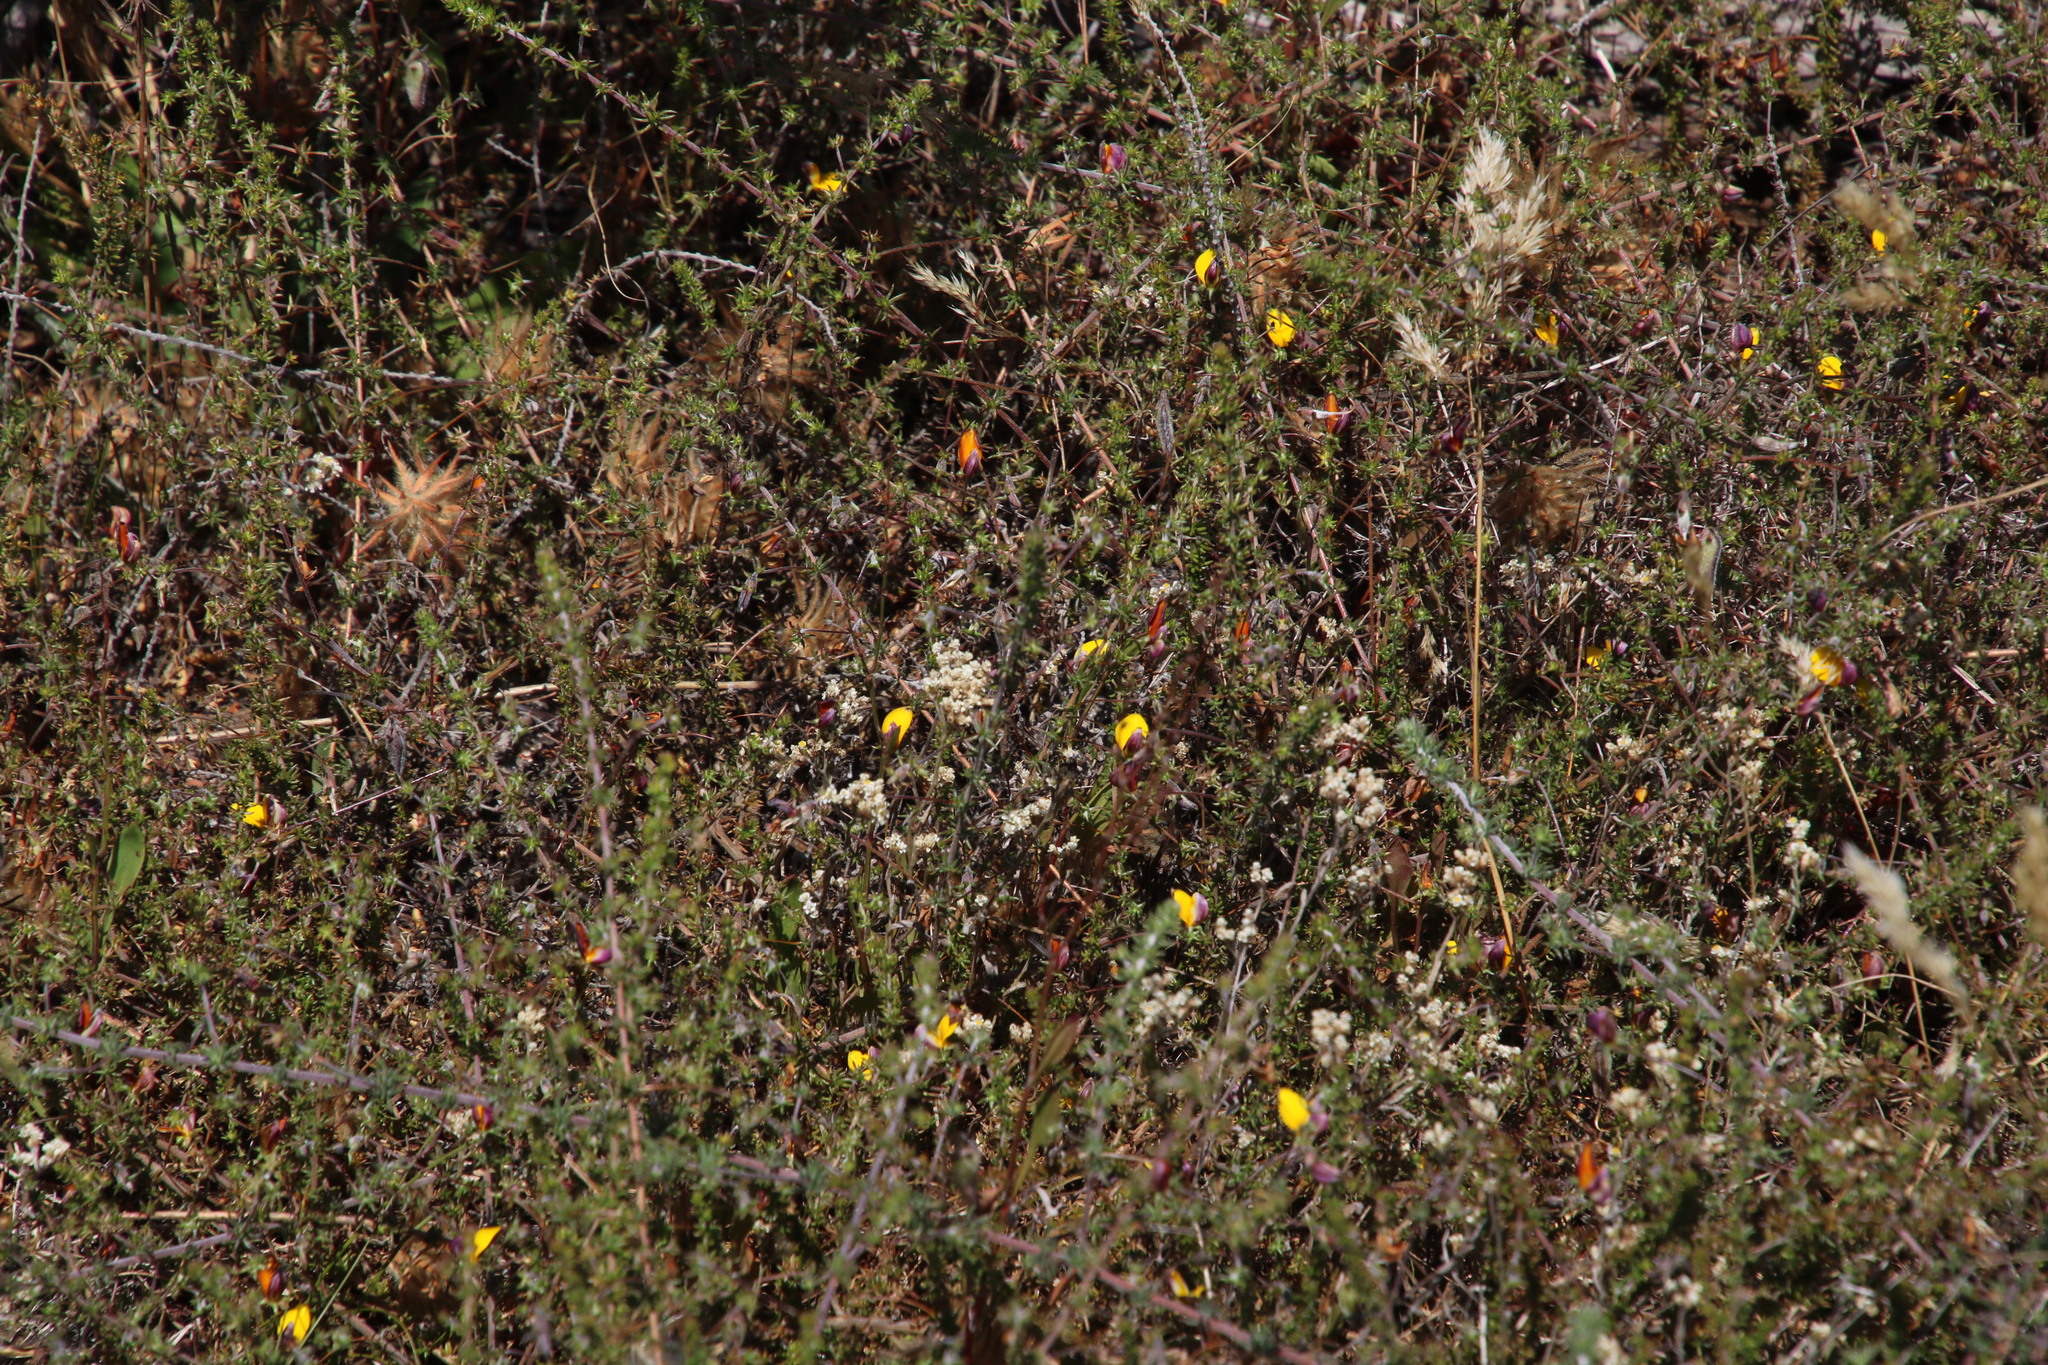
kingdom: Plantae
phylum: Tracheophyta
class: Magnoliopsida
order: Fabales
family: Fabaceae
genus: Aspalathus
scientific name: Aspalathus retroflexa
